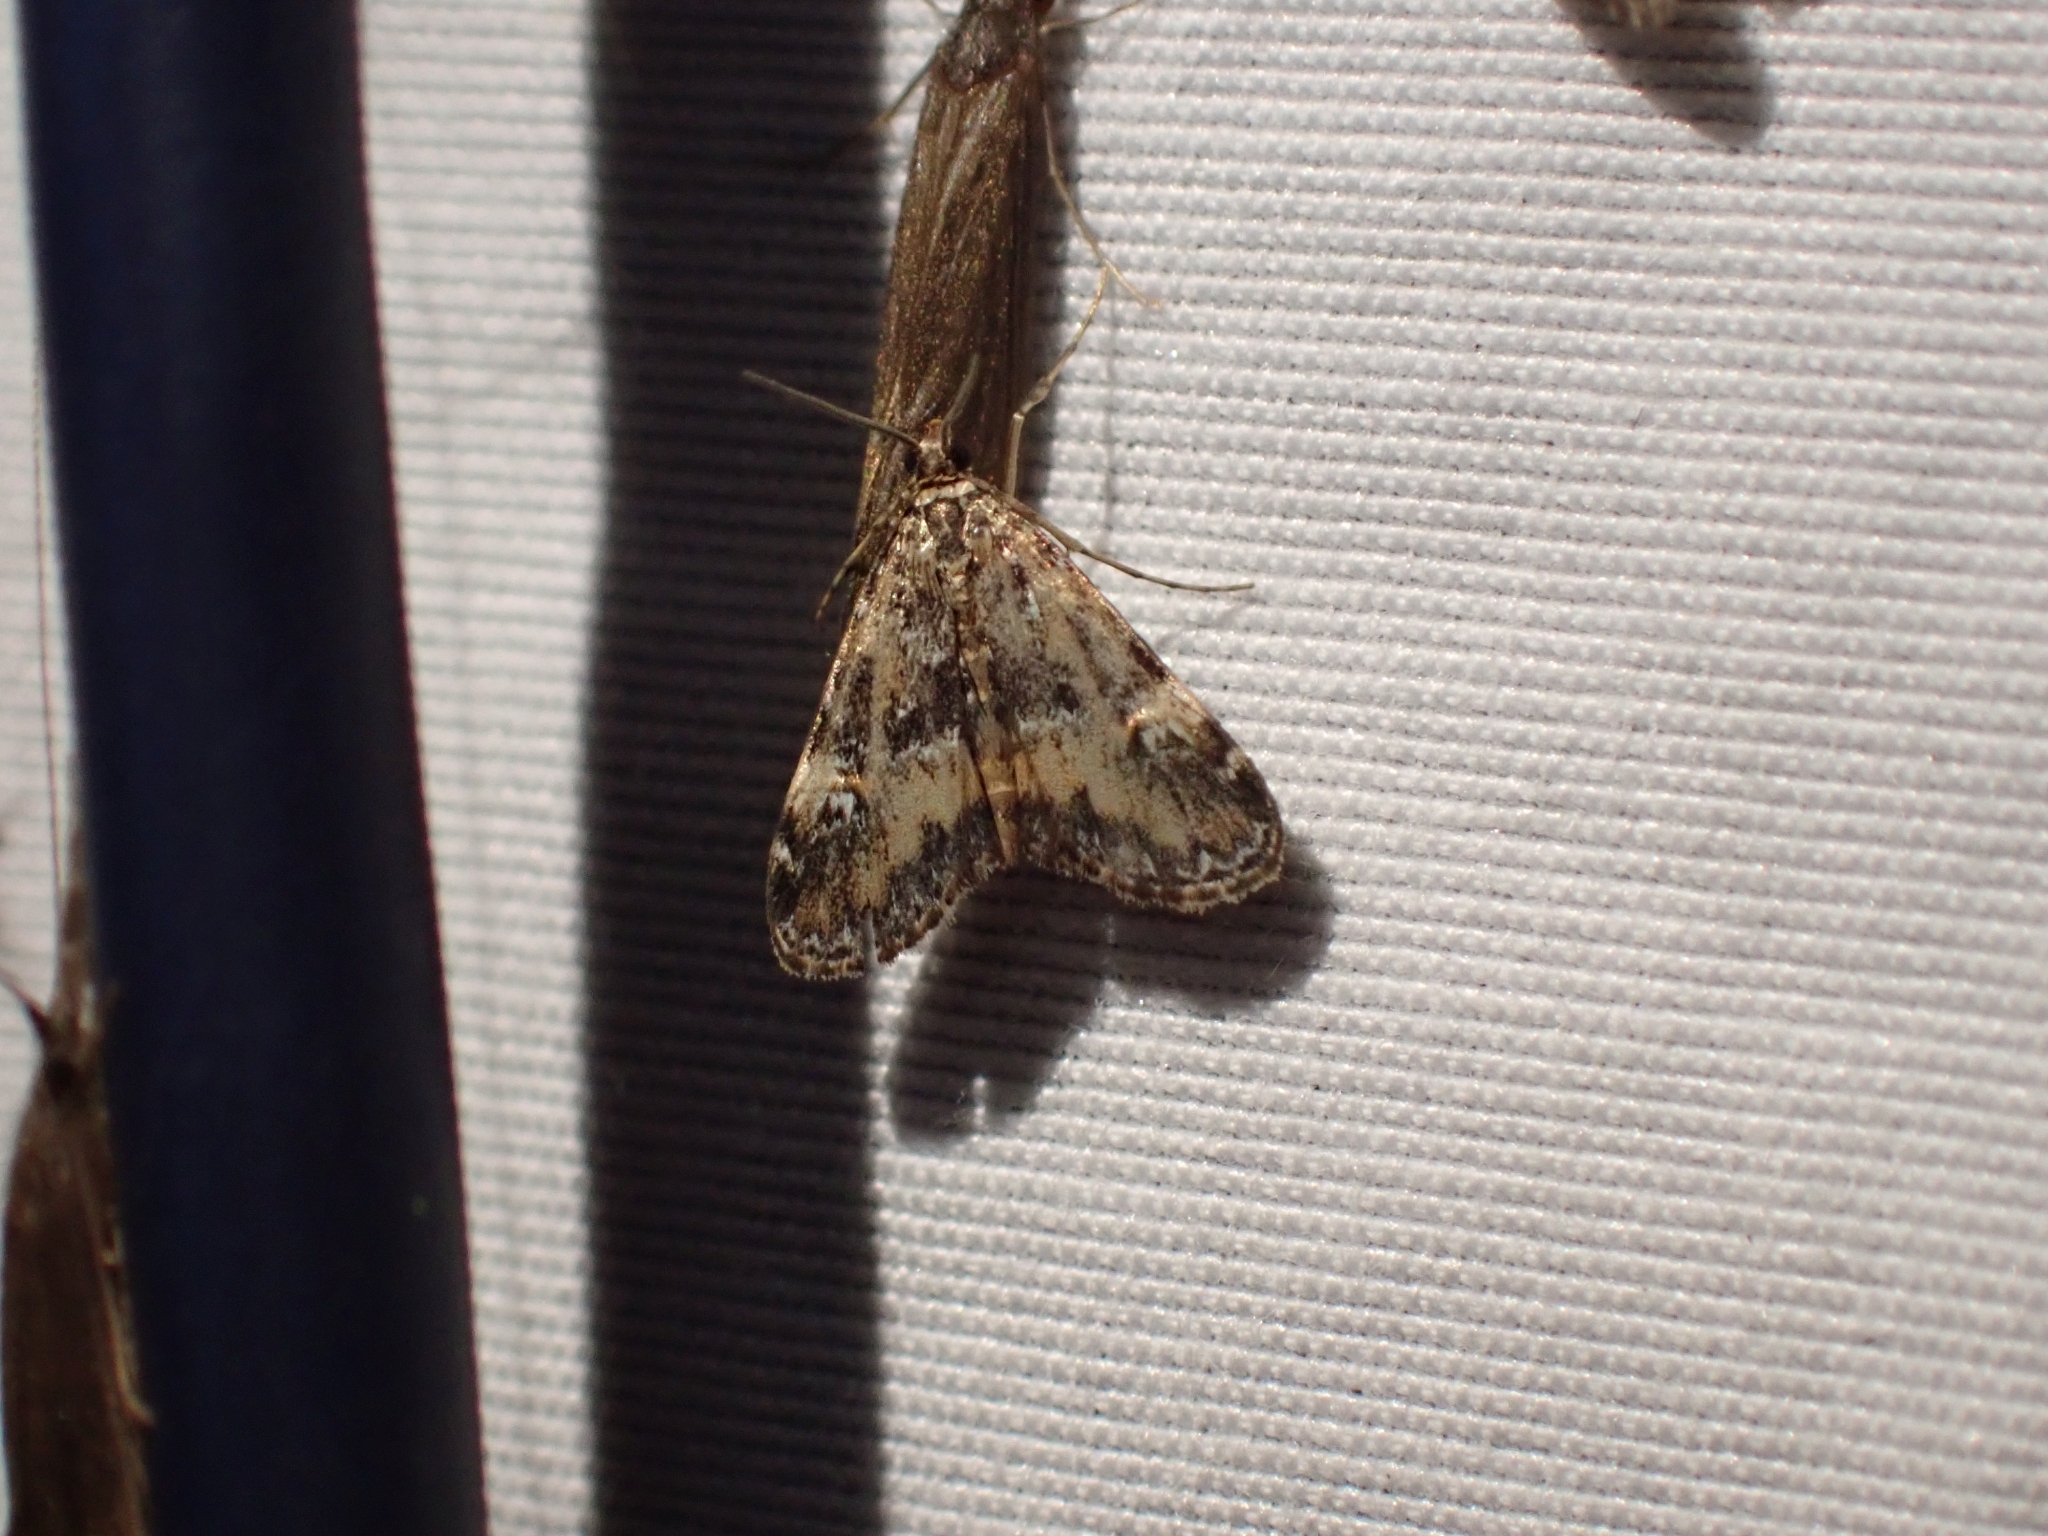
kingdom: Animalia
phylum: Arthropoda
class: Insecta
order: Lepidoptera
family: Crambidae
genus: Elophila
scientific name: Elophila obliteralis
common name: Waterlily leafcutter moth
